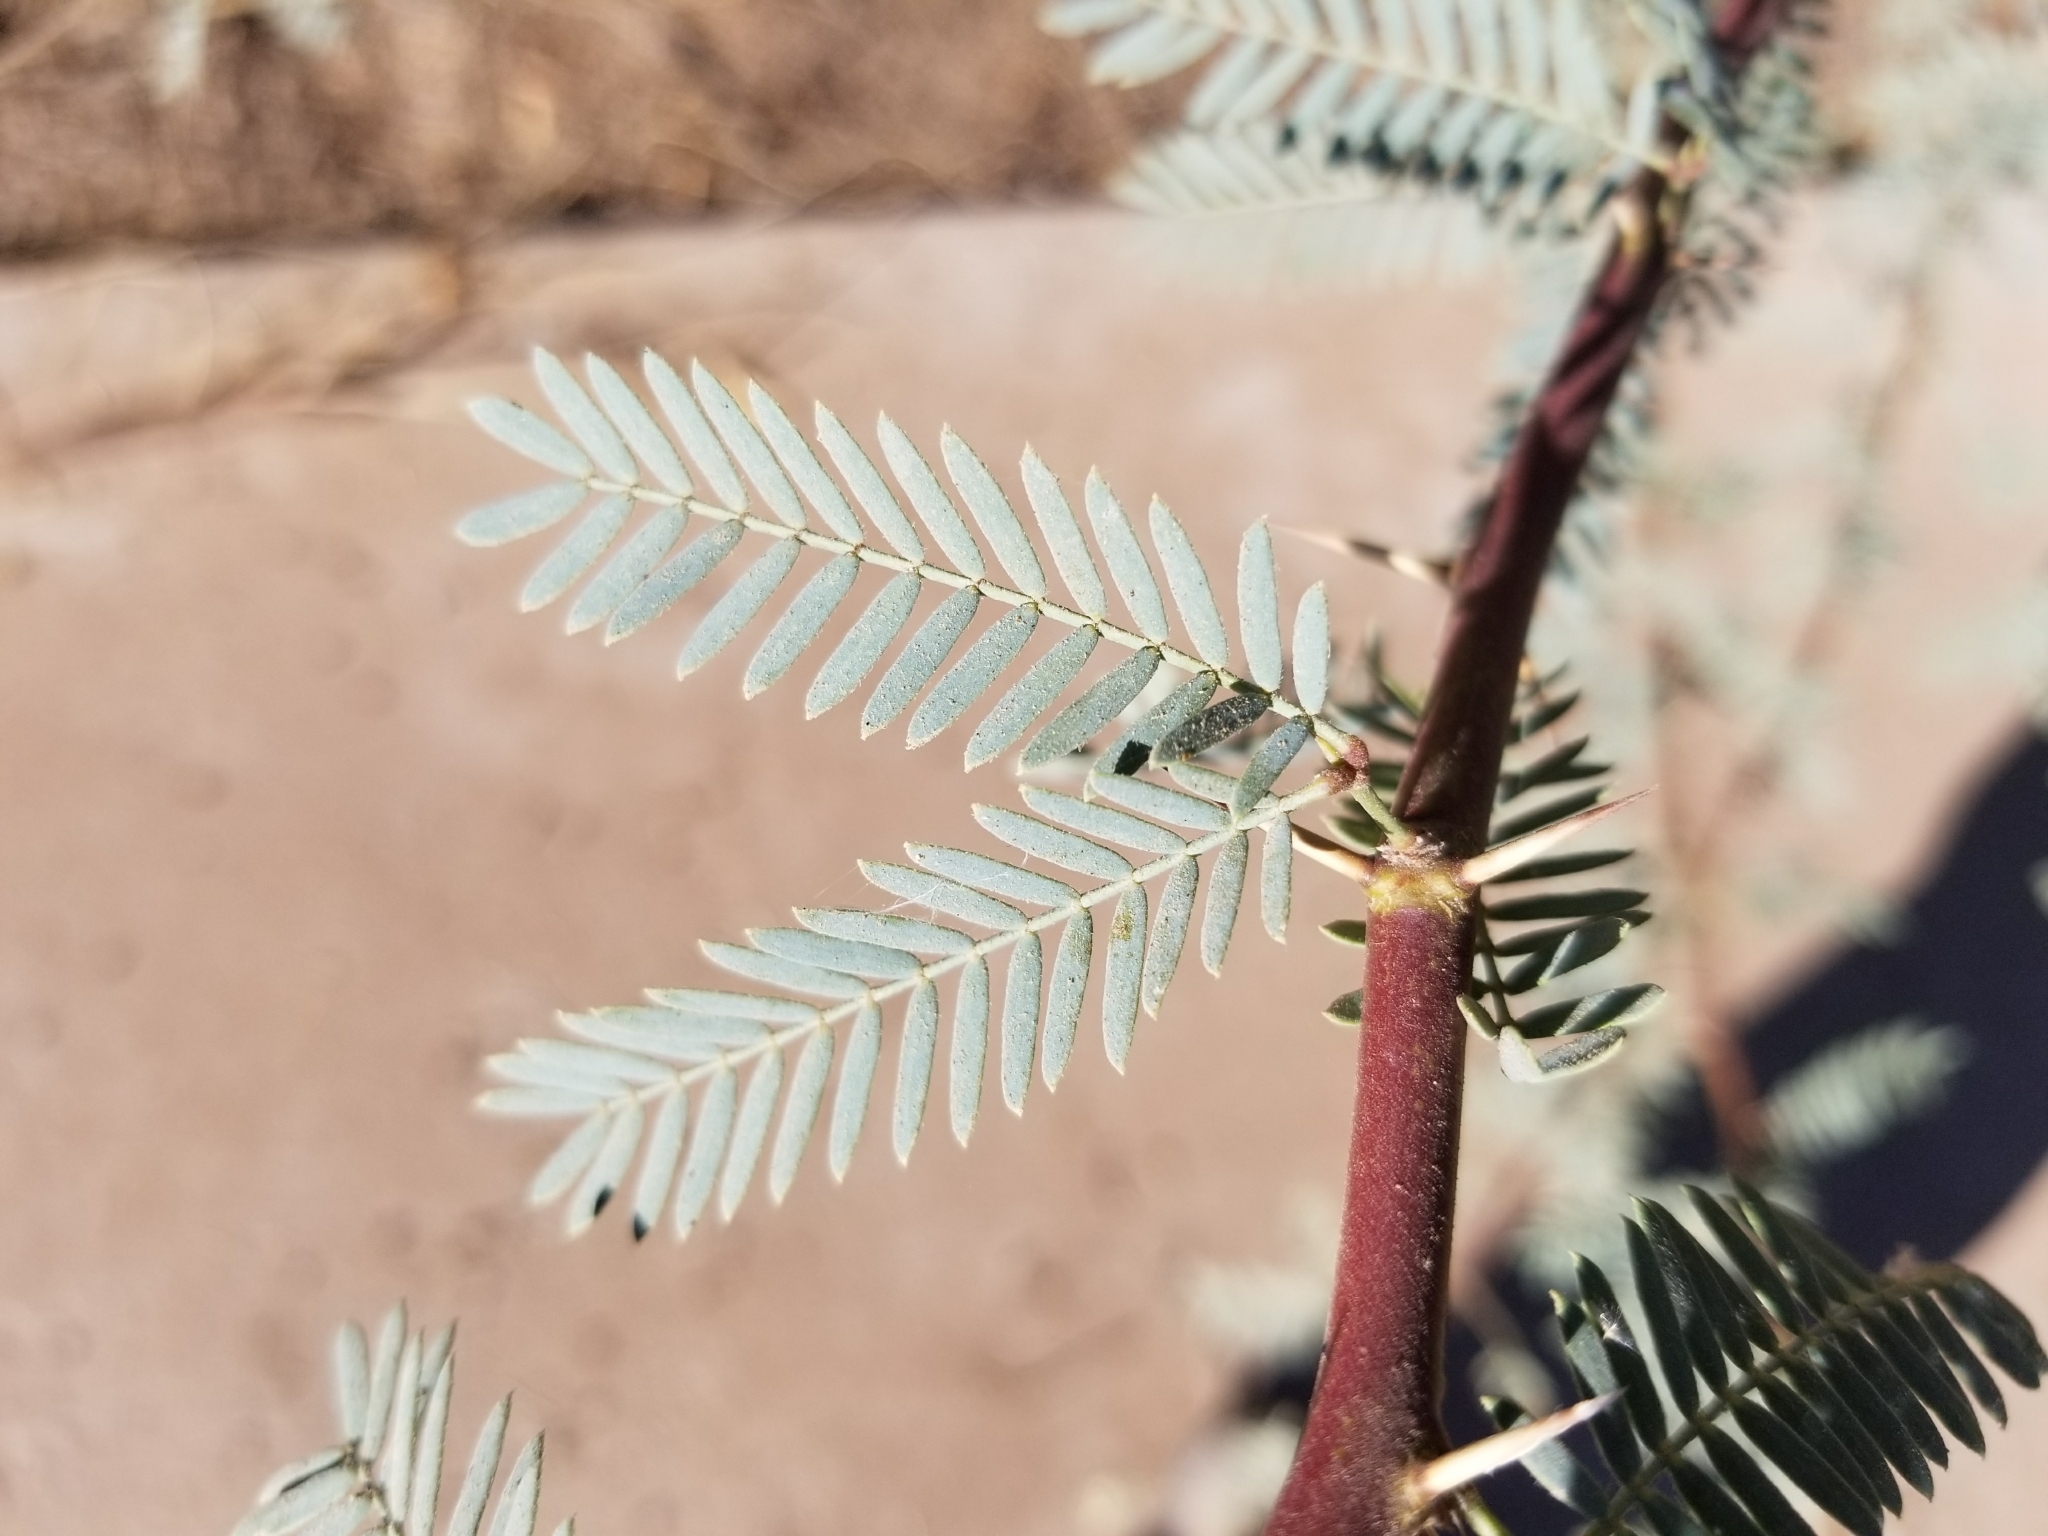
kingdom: Plantae
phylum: Tracheophyta
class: Magnoliopsida
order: Fabales
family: Fabaceae
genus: Prosopis
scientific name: Prosopis glandulosa
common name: Honey mesquite
